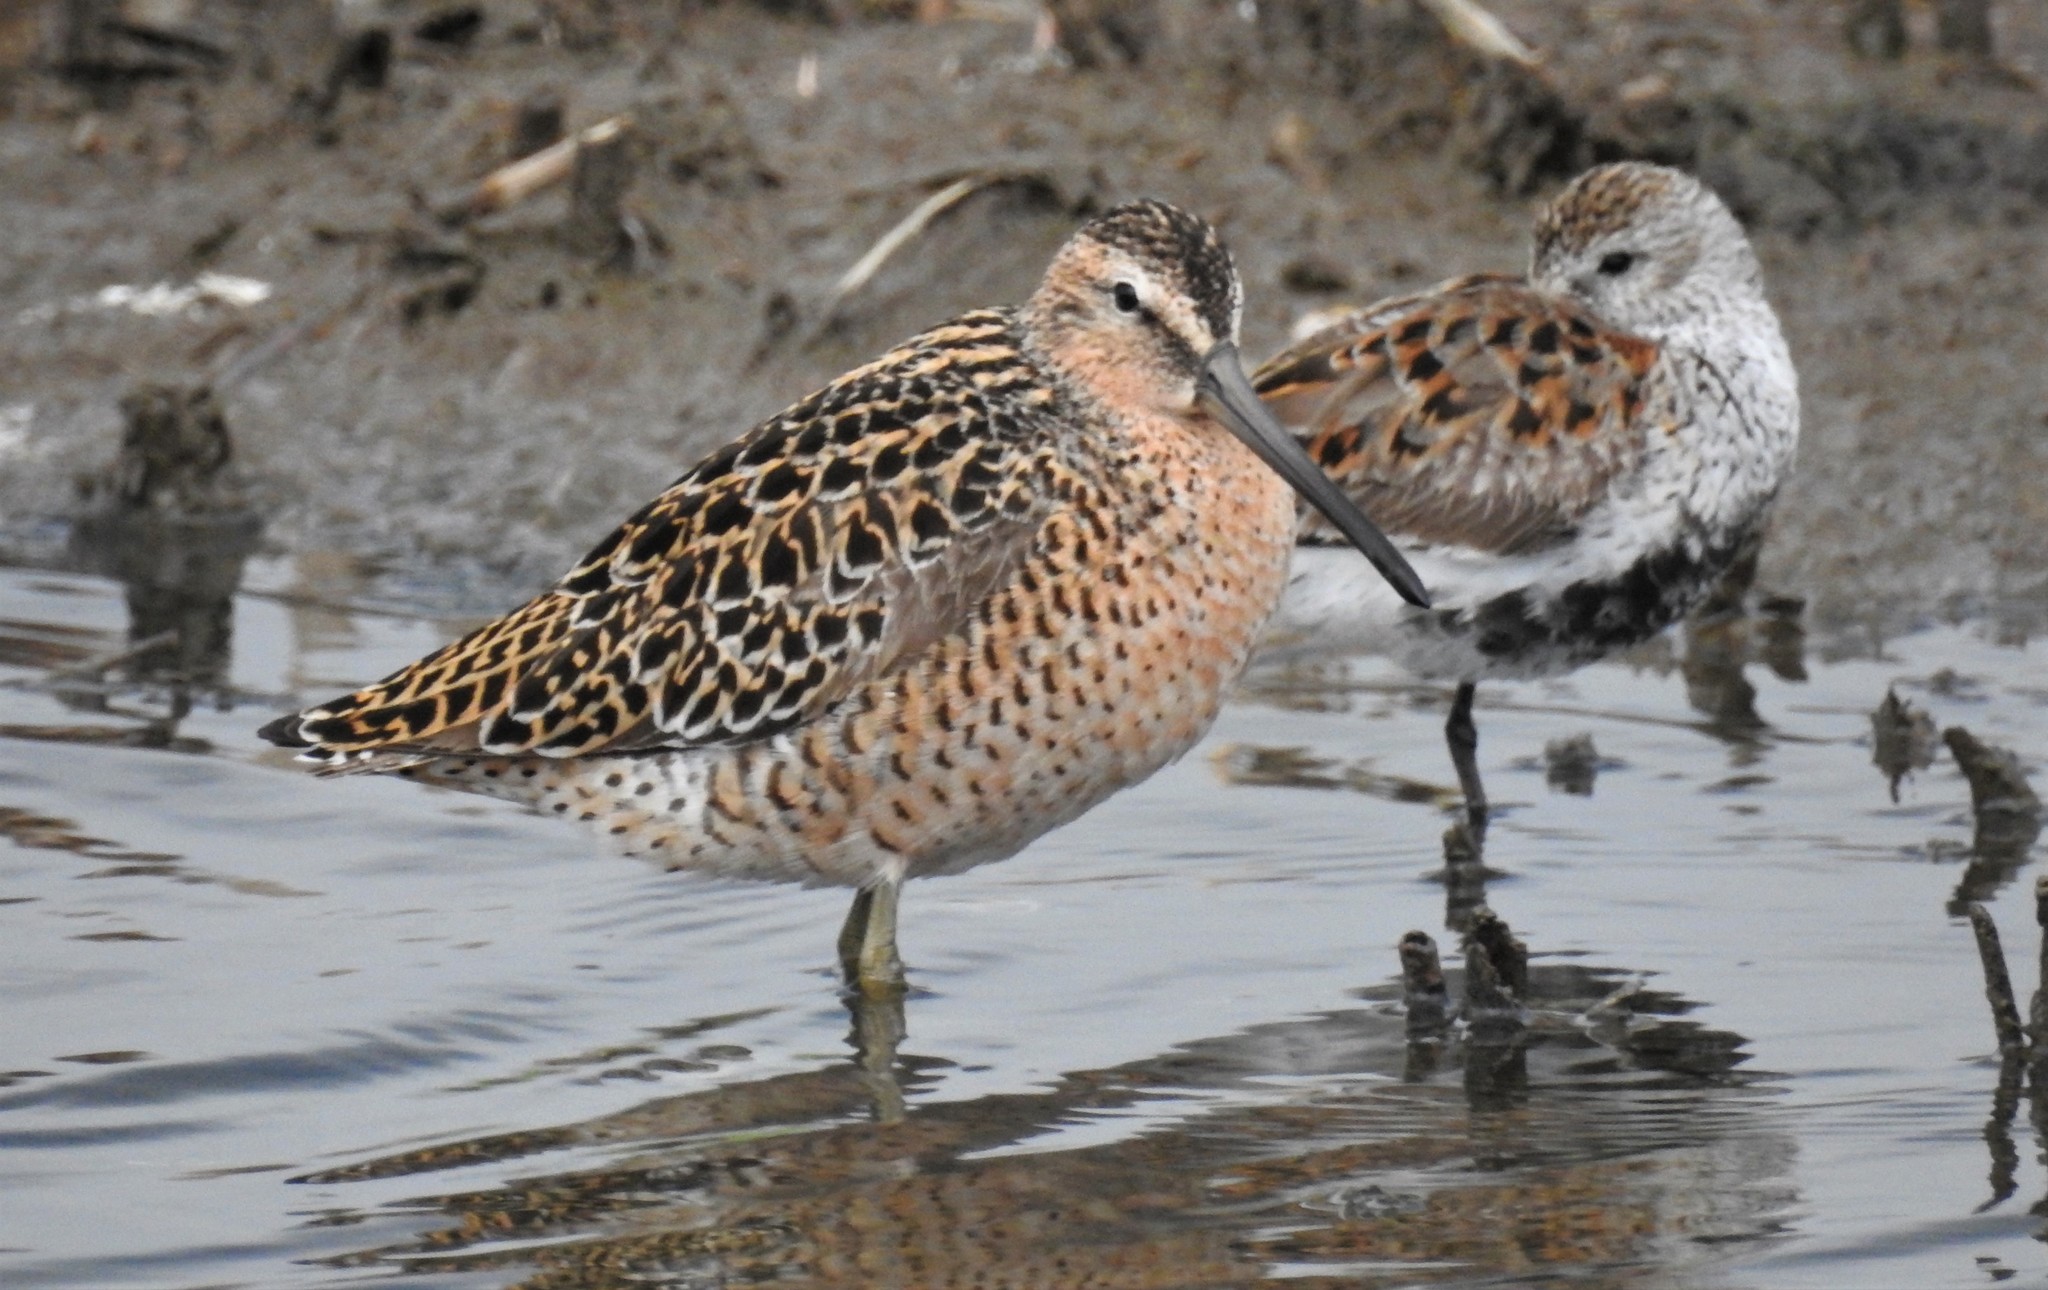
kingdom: Animalia
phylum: Chordata
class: Aves
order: Charadriiformes
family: Scolopacidae
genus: Limnodromus
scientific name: Limnodromus griseus
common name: Short-billed dowitcher
